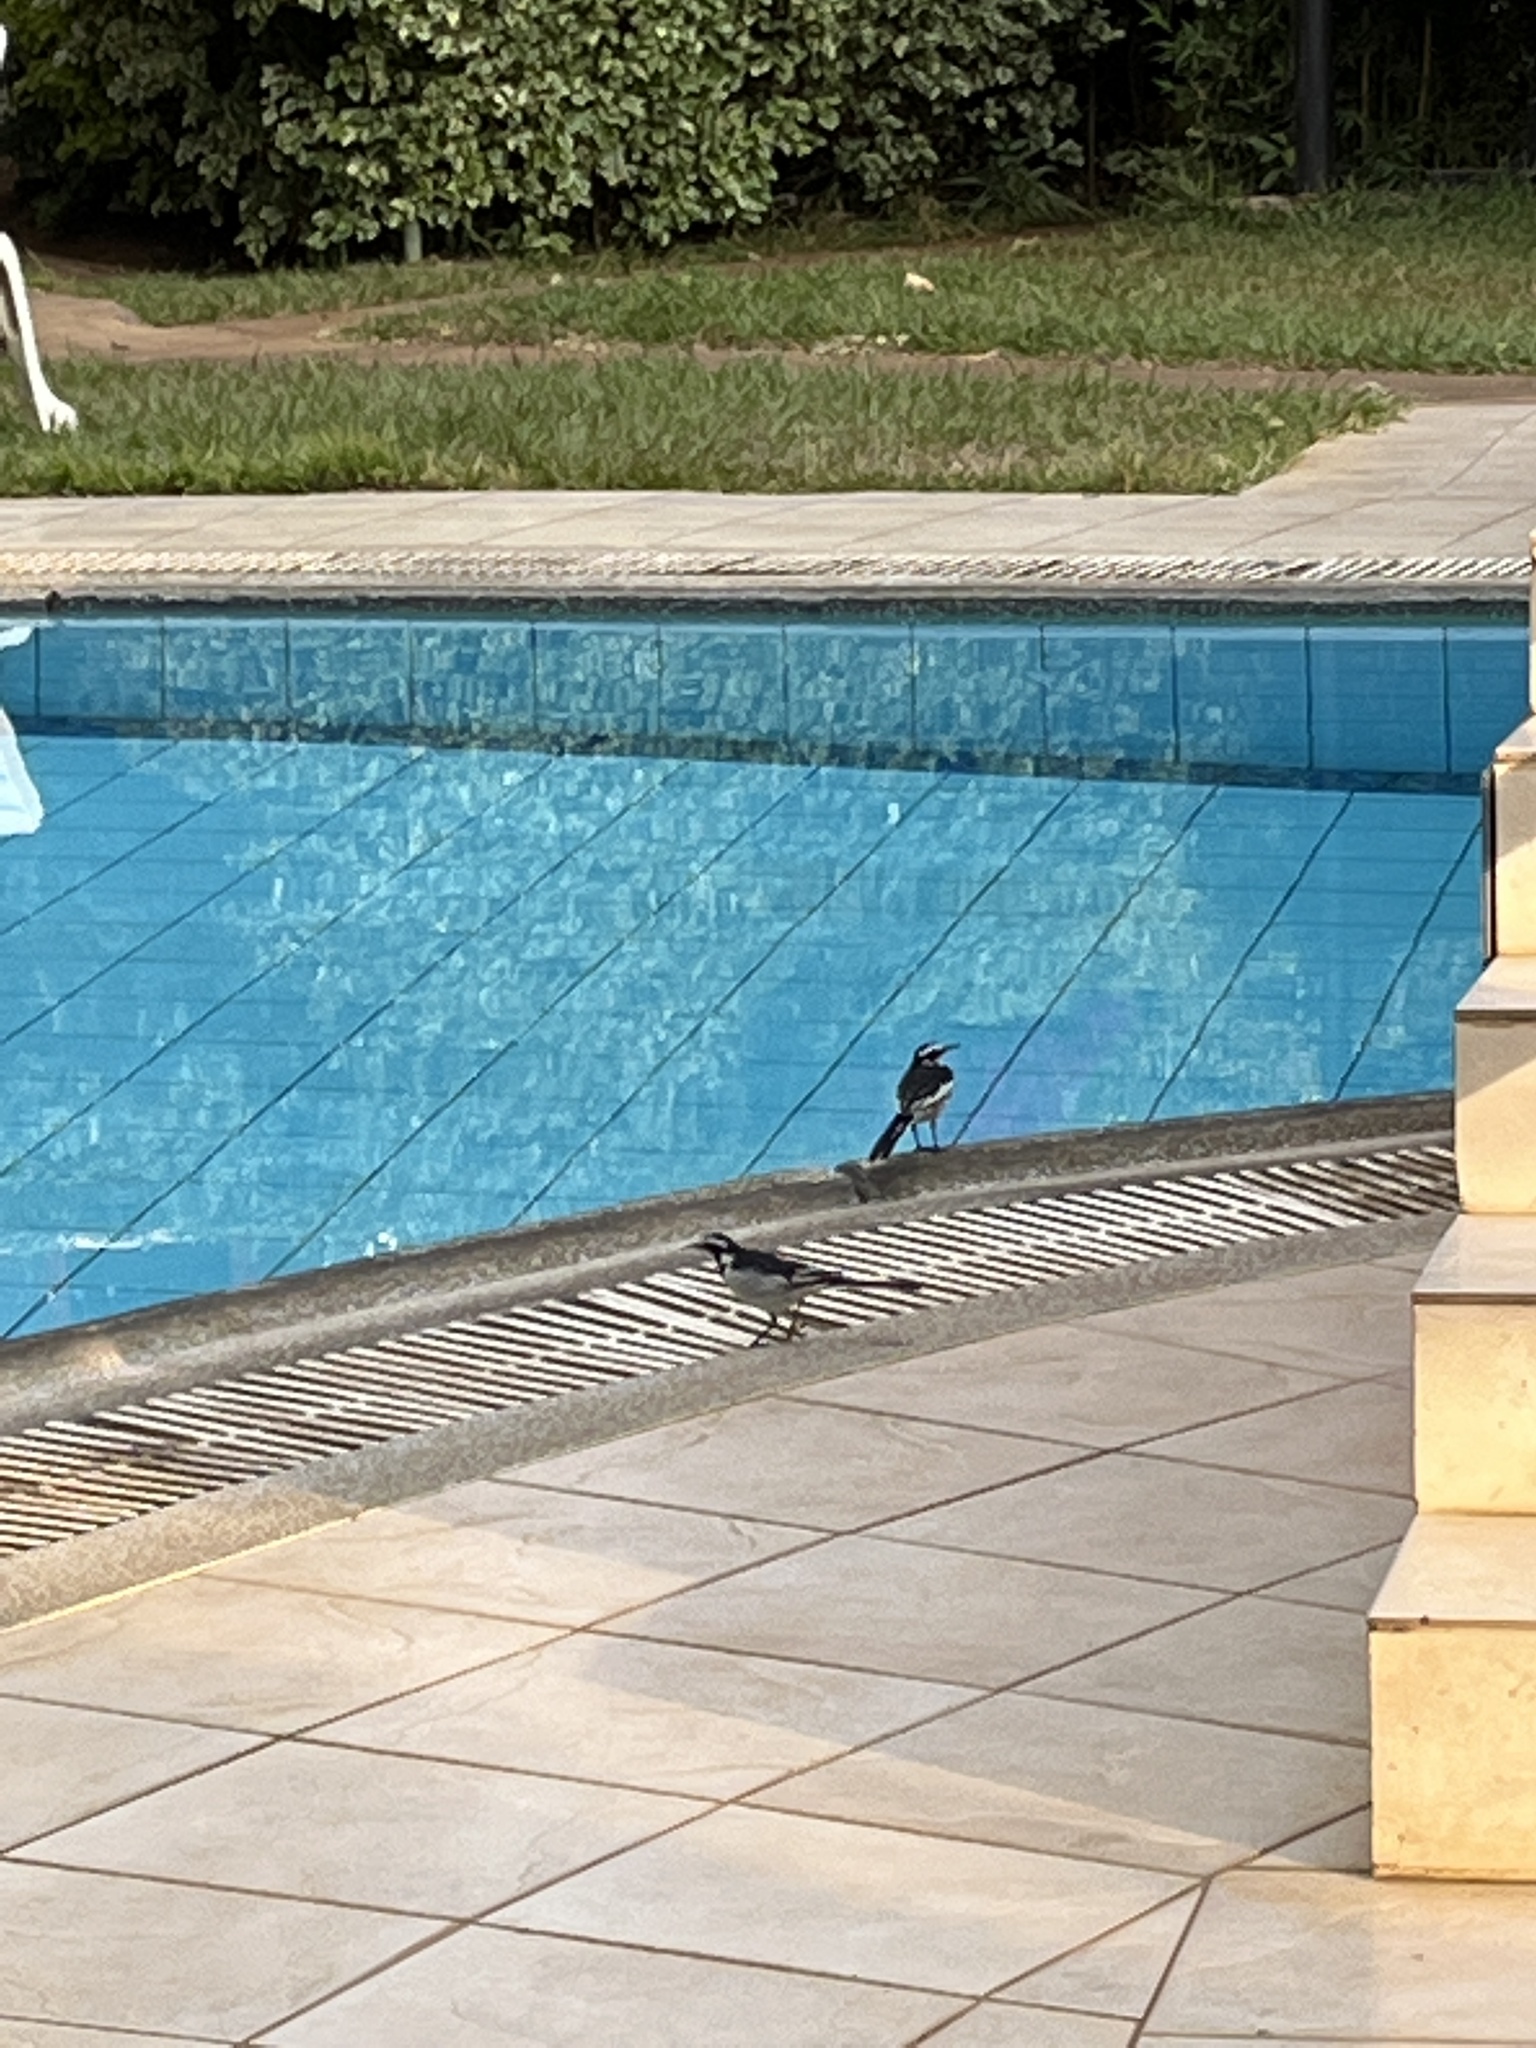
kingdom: Animalia
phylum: Chordata
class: Aves
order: Passeriformes
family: Motacillidae
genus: Motacilla
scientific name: Motacilla aguimp
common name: African pied wagtail
